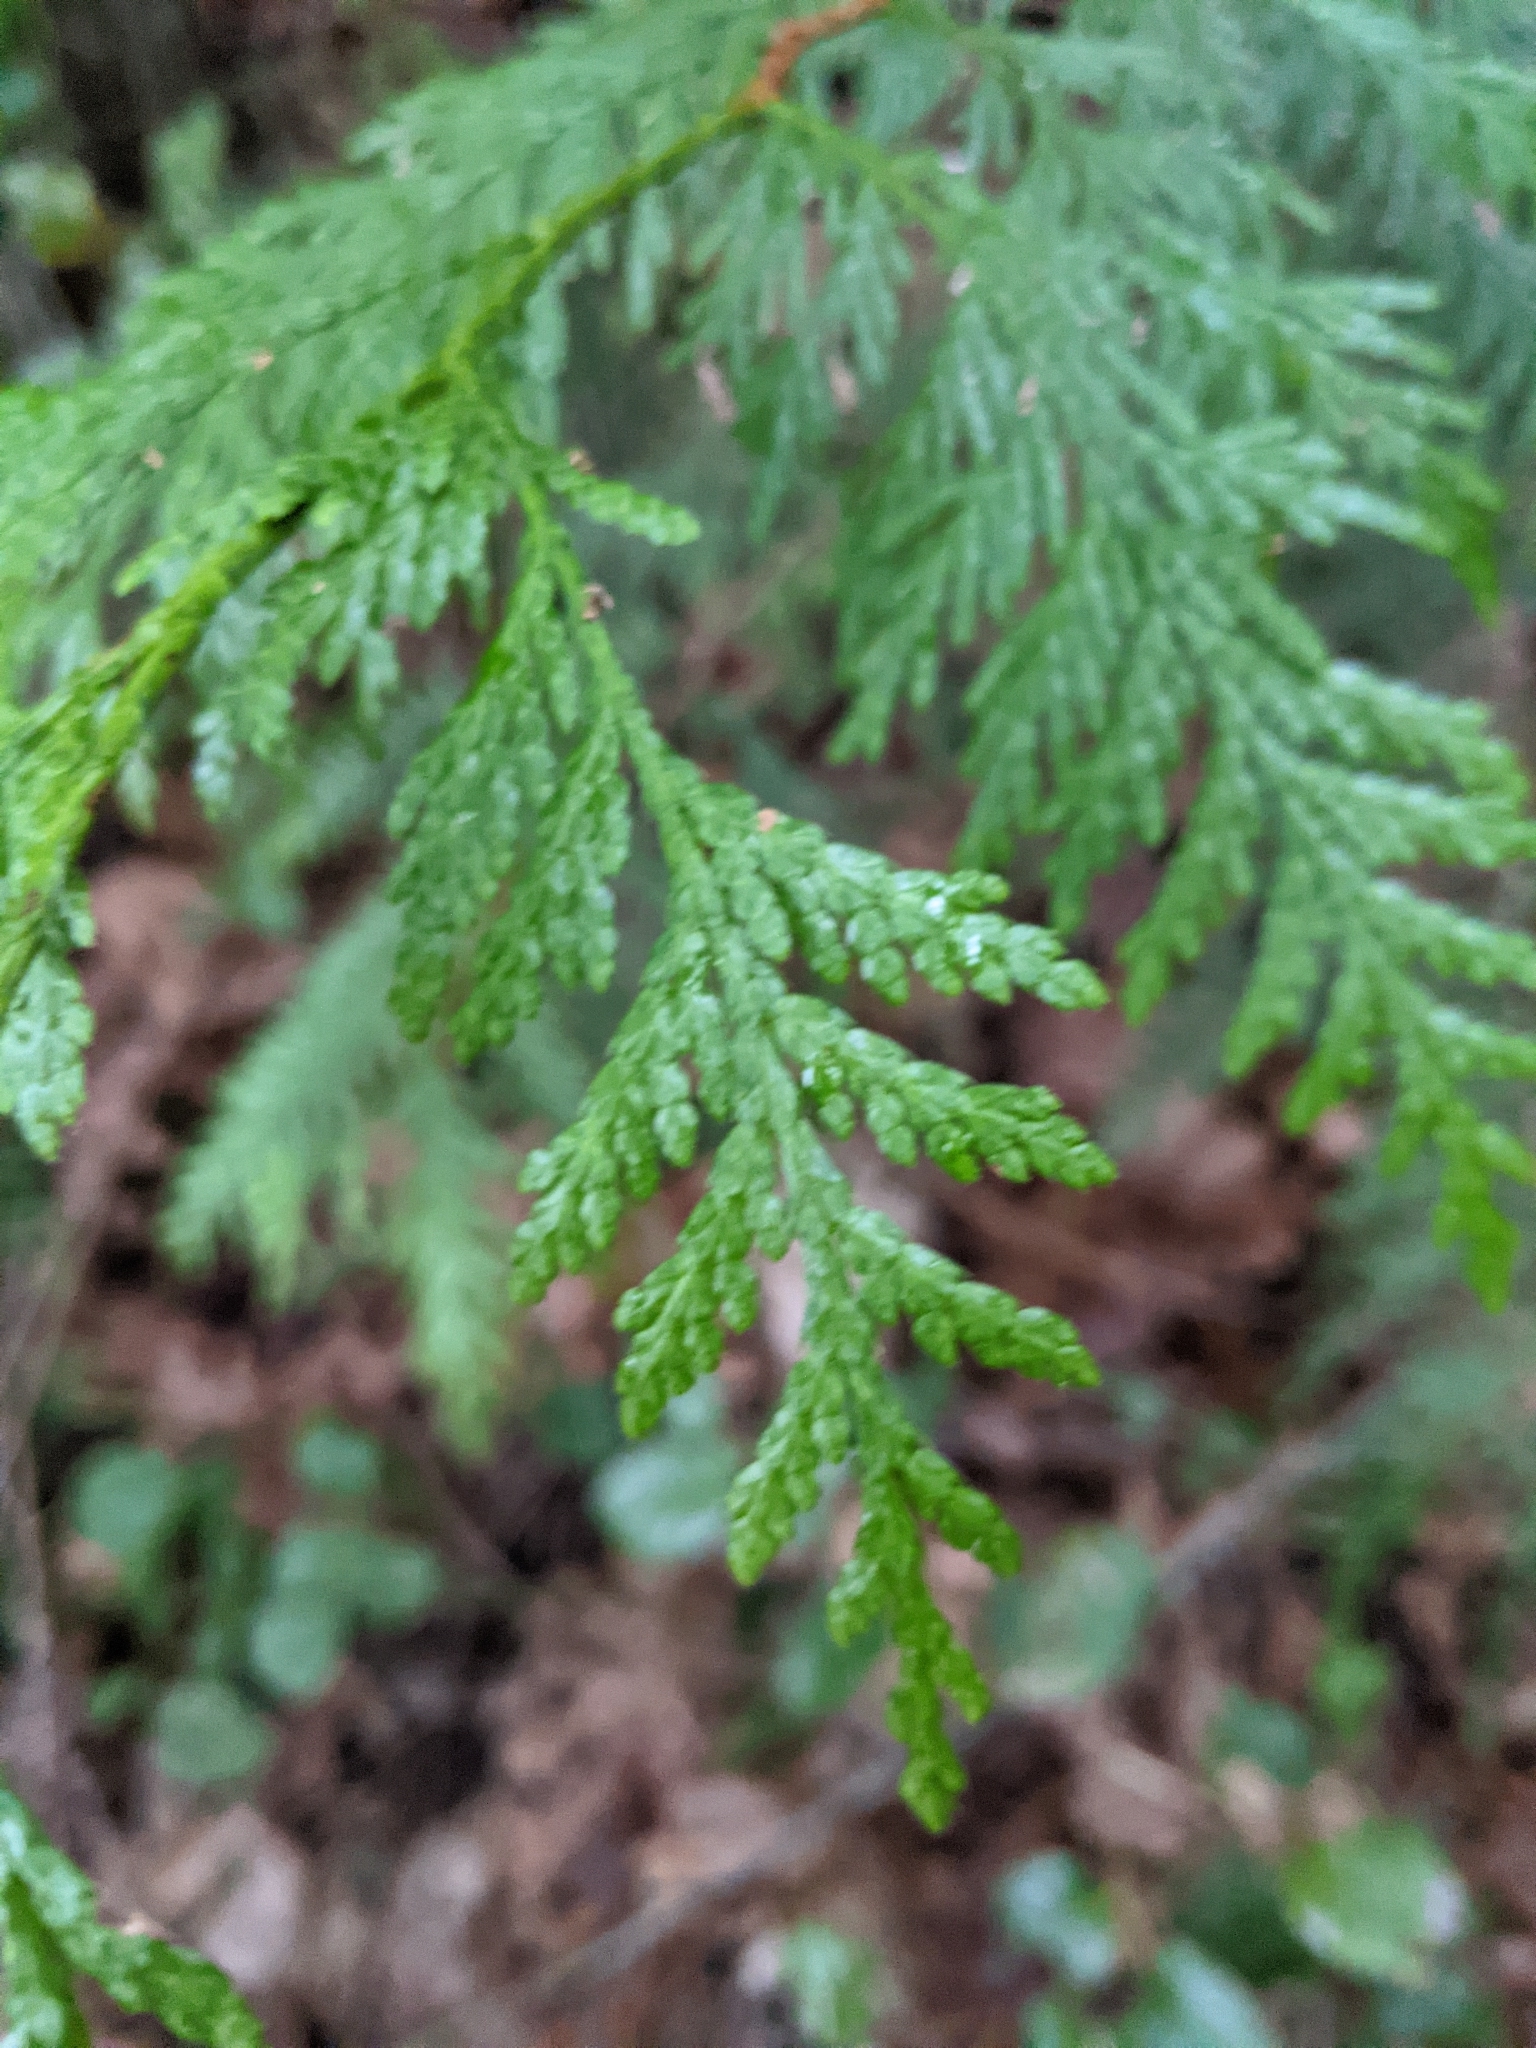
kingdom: Plantae
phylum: Tracheophyta
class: Pinopsida
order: Pinales
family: Cupressaceae
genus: Thuja
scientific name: Thuja plicata
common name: Western red-cedar
